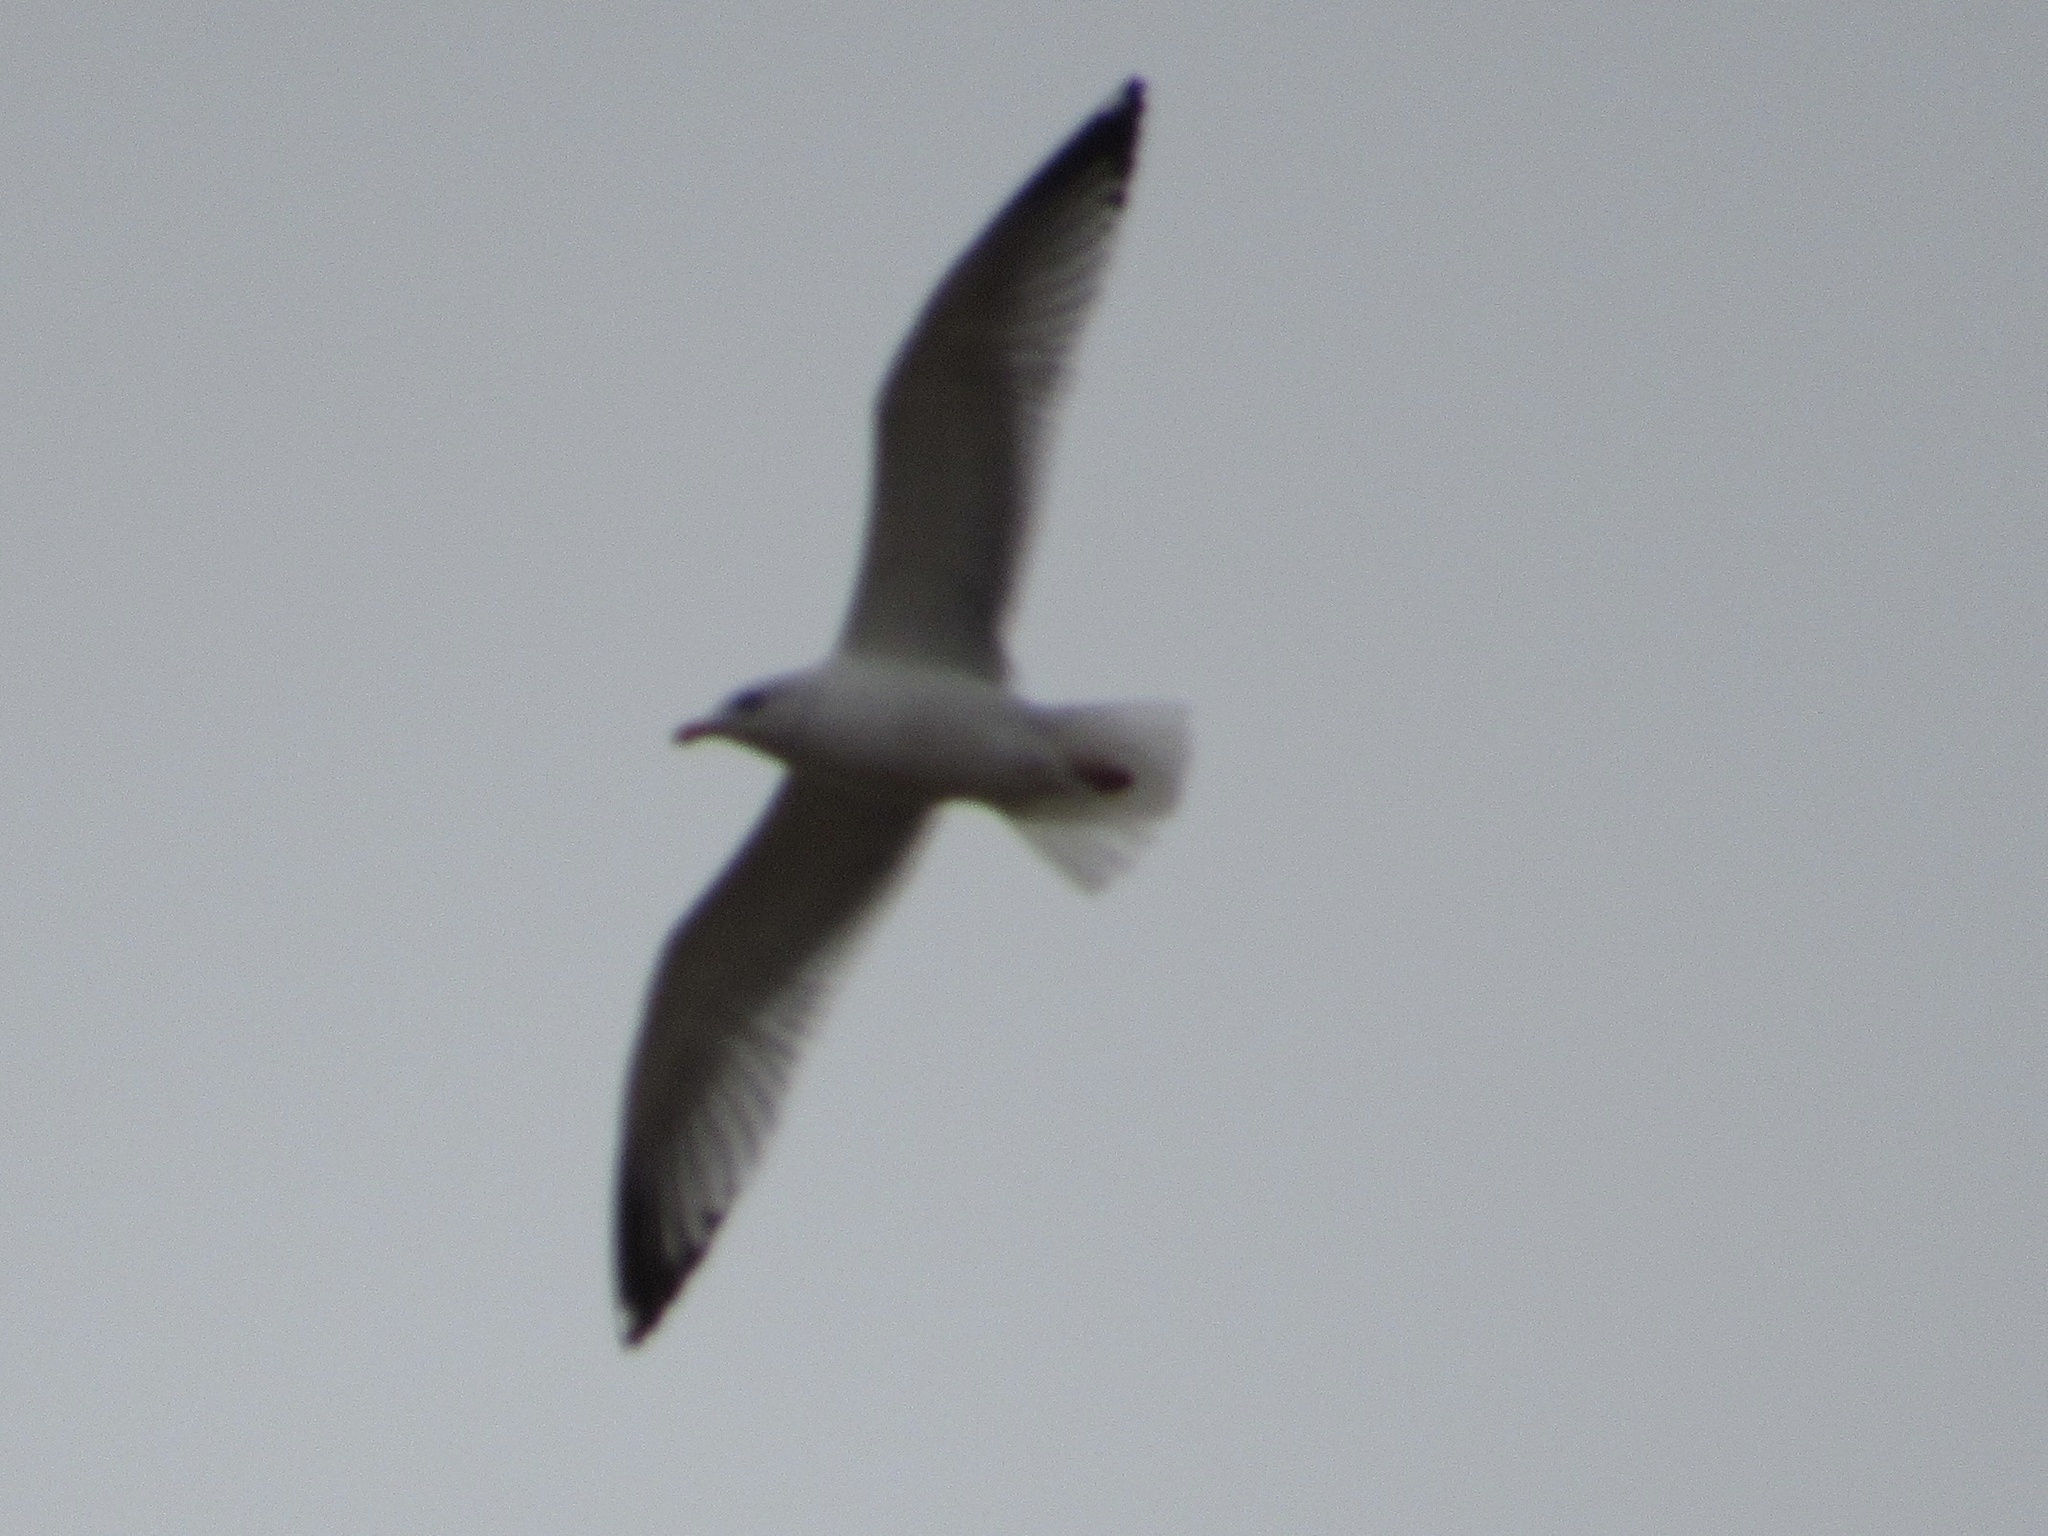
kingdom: Animalia
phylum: Chordata
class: Aves
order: Charadriiformes
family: Laridae
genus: Larus
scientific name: Larus delawarensis
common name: Ring-billed gull
